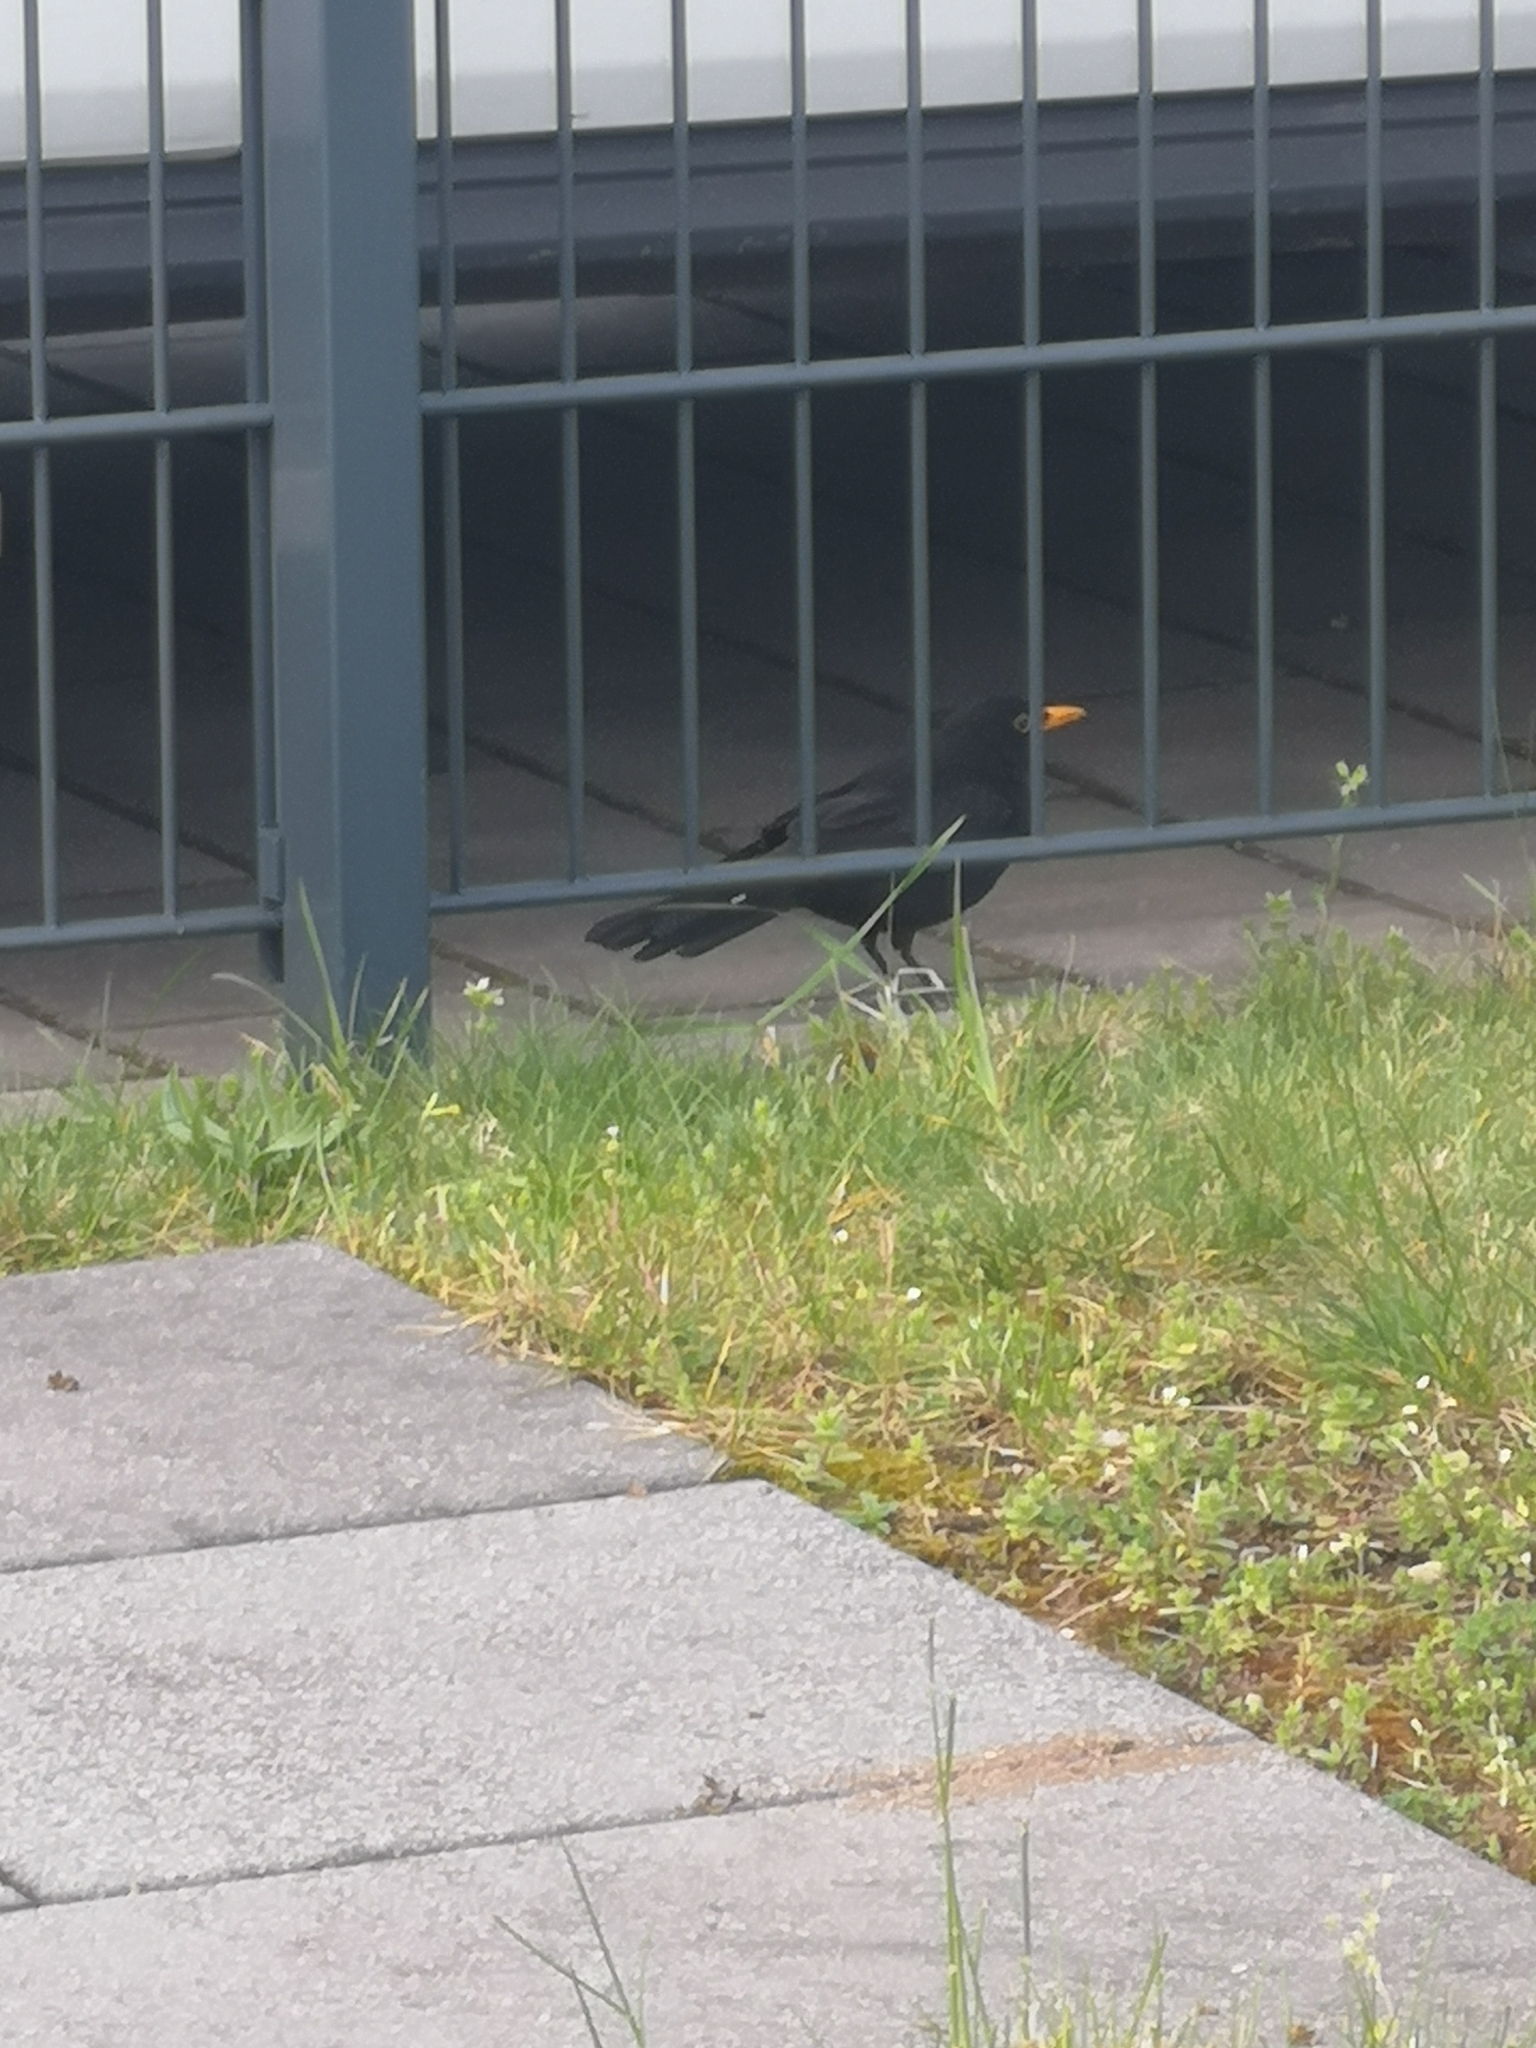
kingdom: Animalia
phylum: Chordata
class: Aves
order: Passeriformes
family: Turdidae
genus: Turdus
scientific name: Turdus merula
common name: Common blackbird
